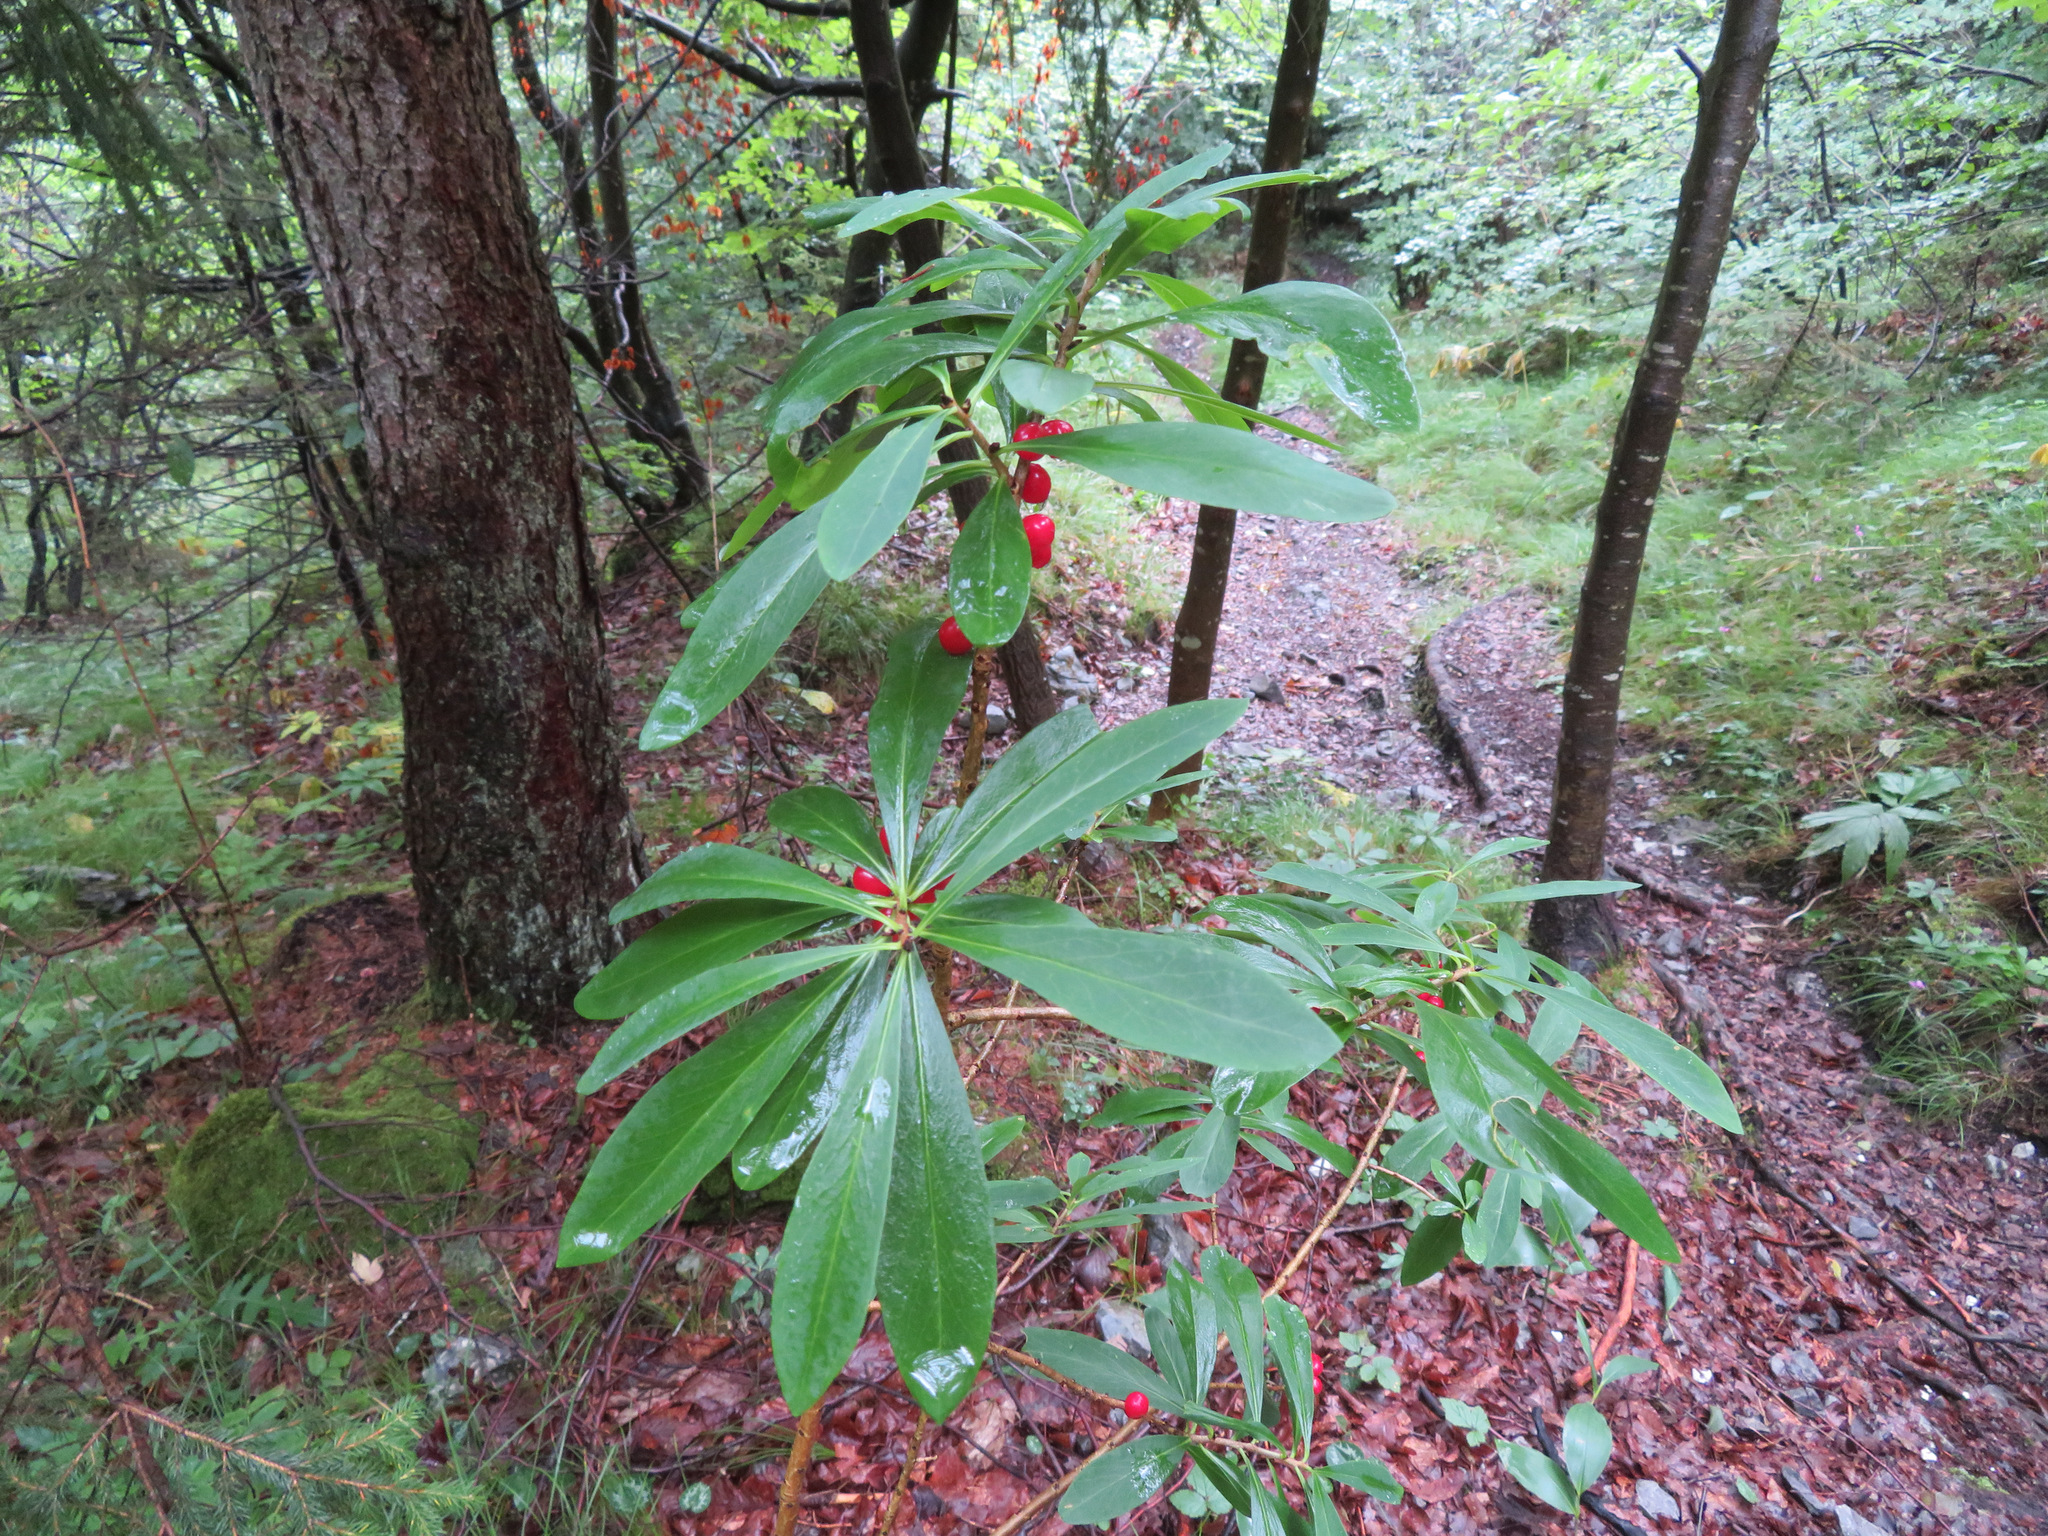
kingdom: Plantae
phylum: Tracheophyta
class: Magnoliopsida
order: Malvales
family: Thymelaeaceae
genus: Daphne
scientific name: Daphne mezereum
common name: Mezereon
